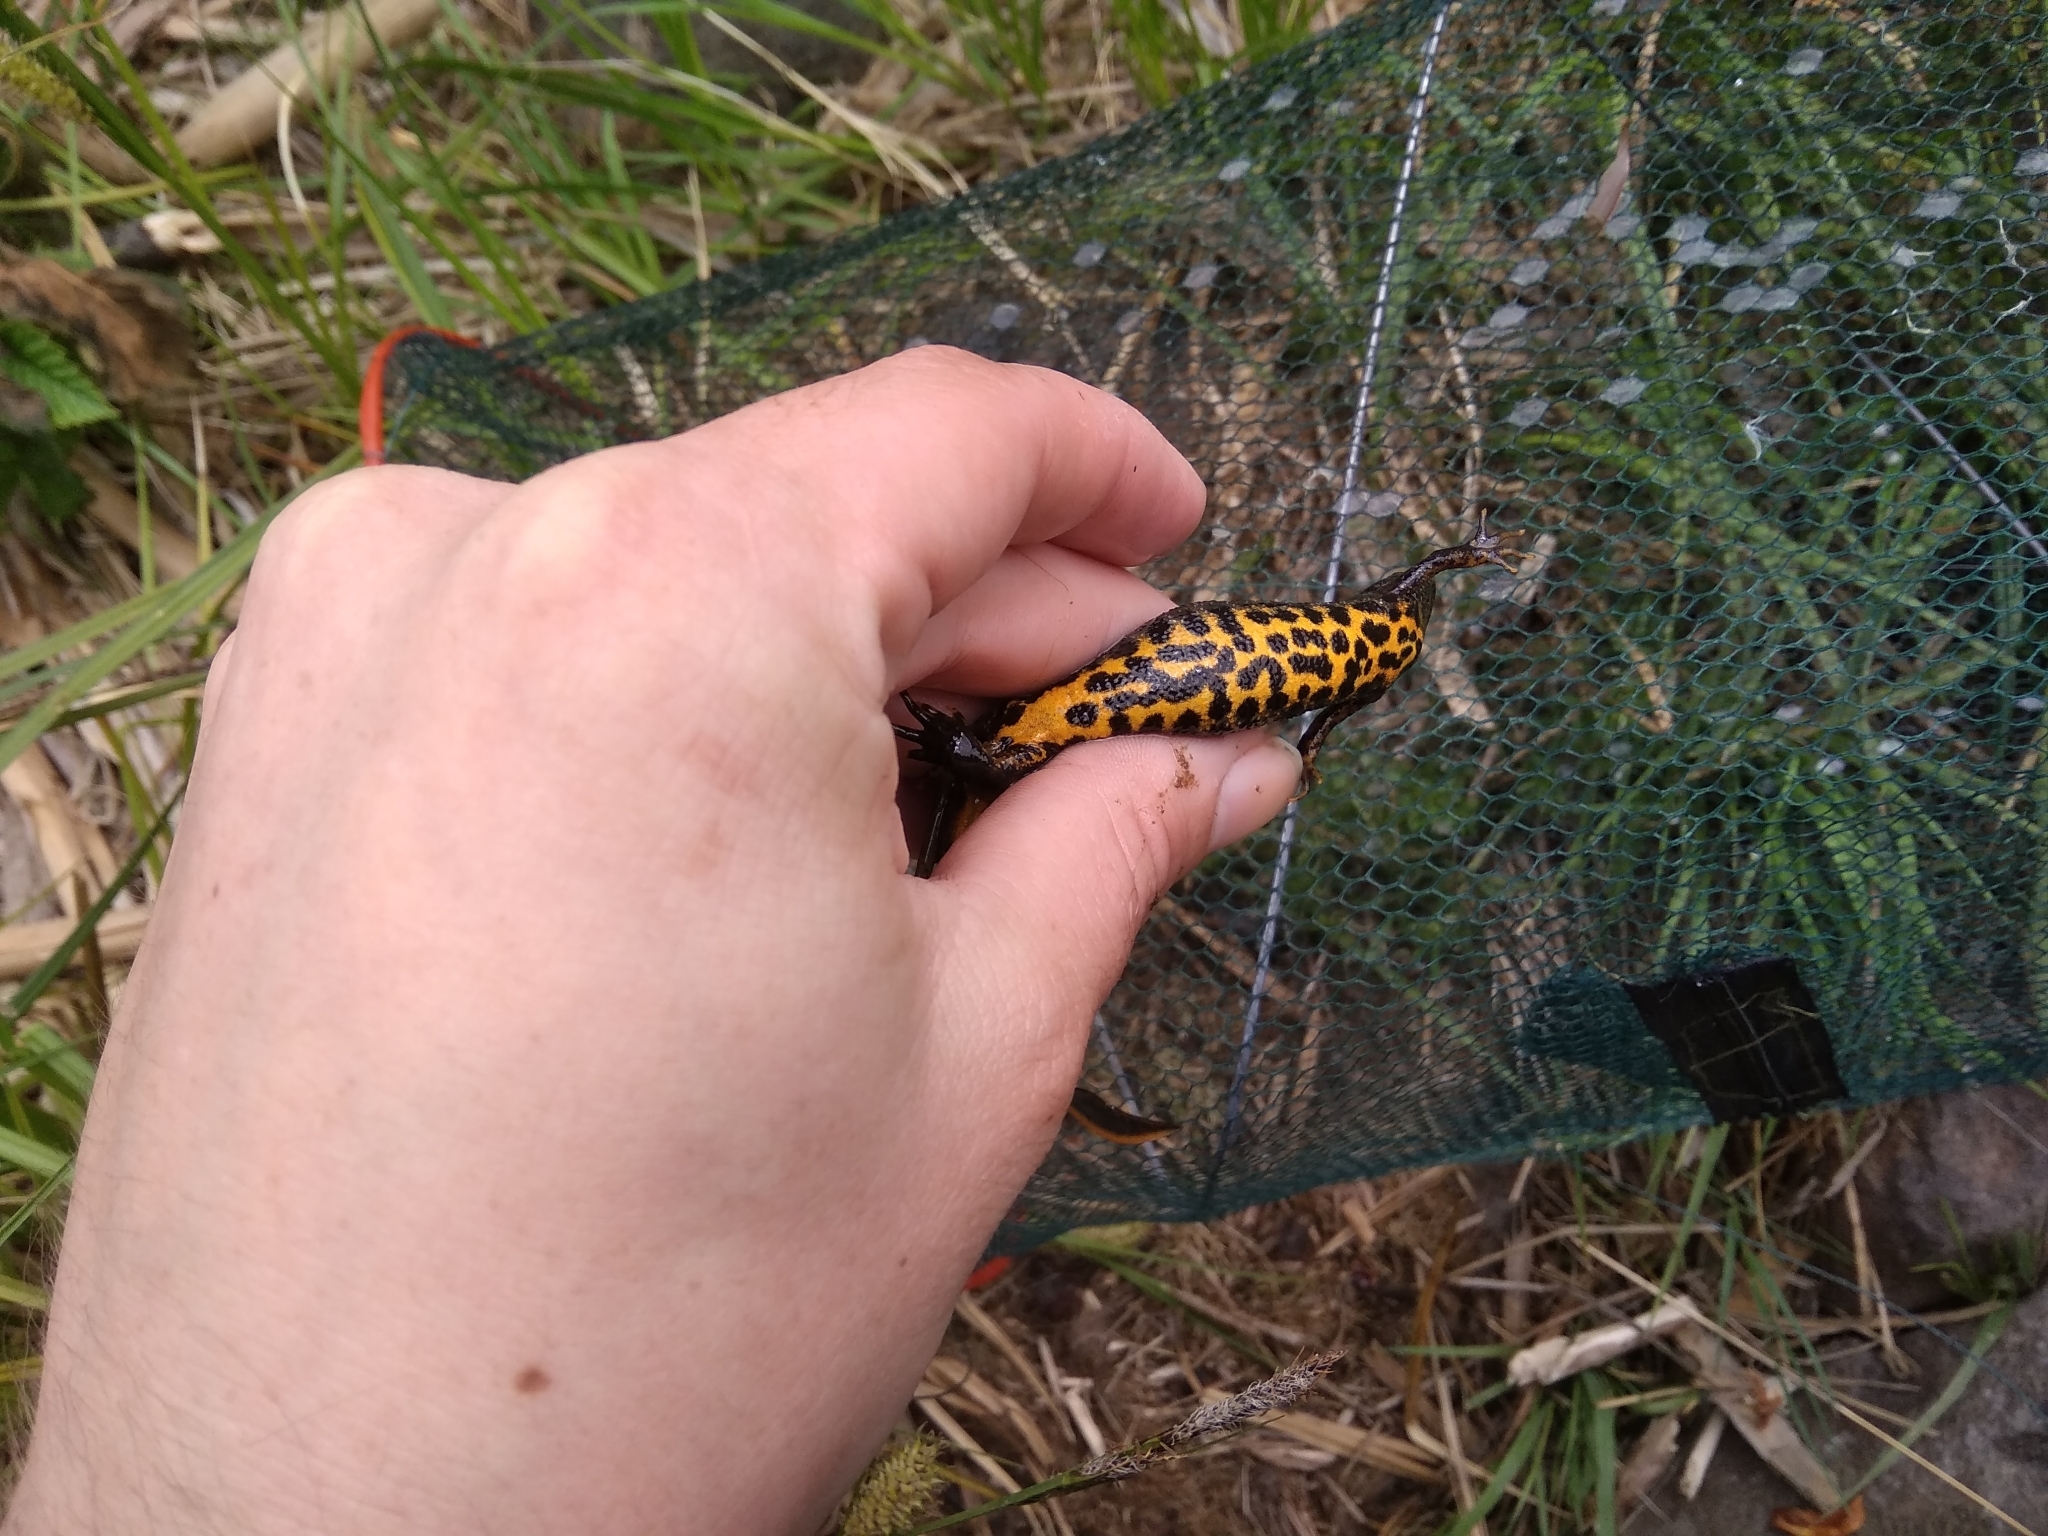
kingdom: Animalia
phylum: Chordata
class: Amphibia
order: Caudata
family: Salamandridae
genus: Triturus
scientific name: Triturus cristatus
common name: Crested newt
